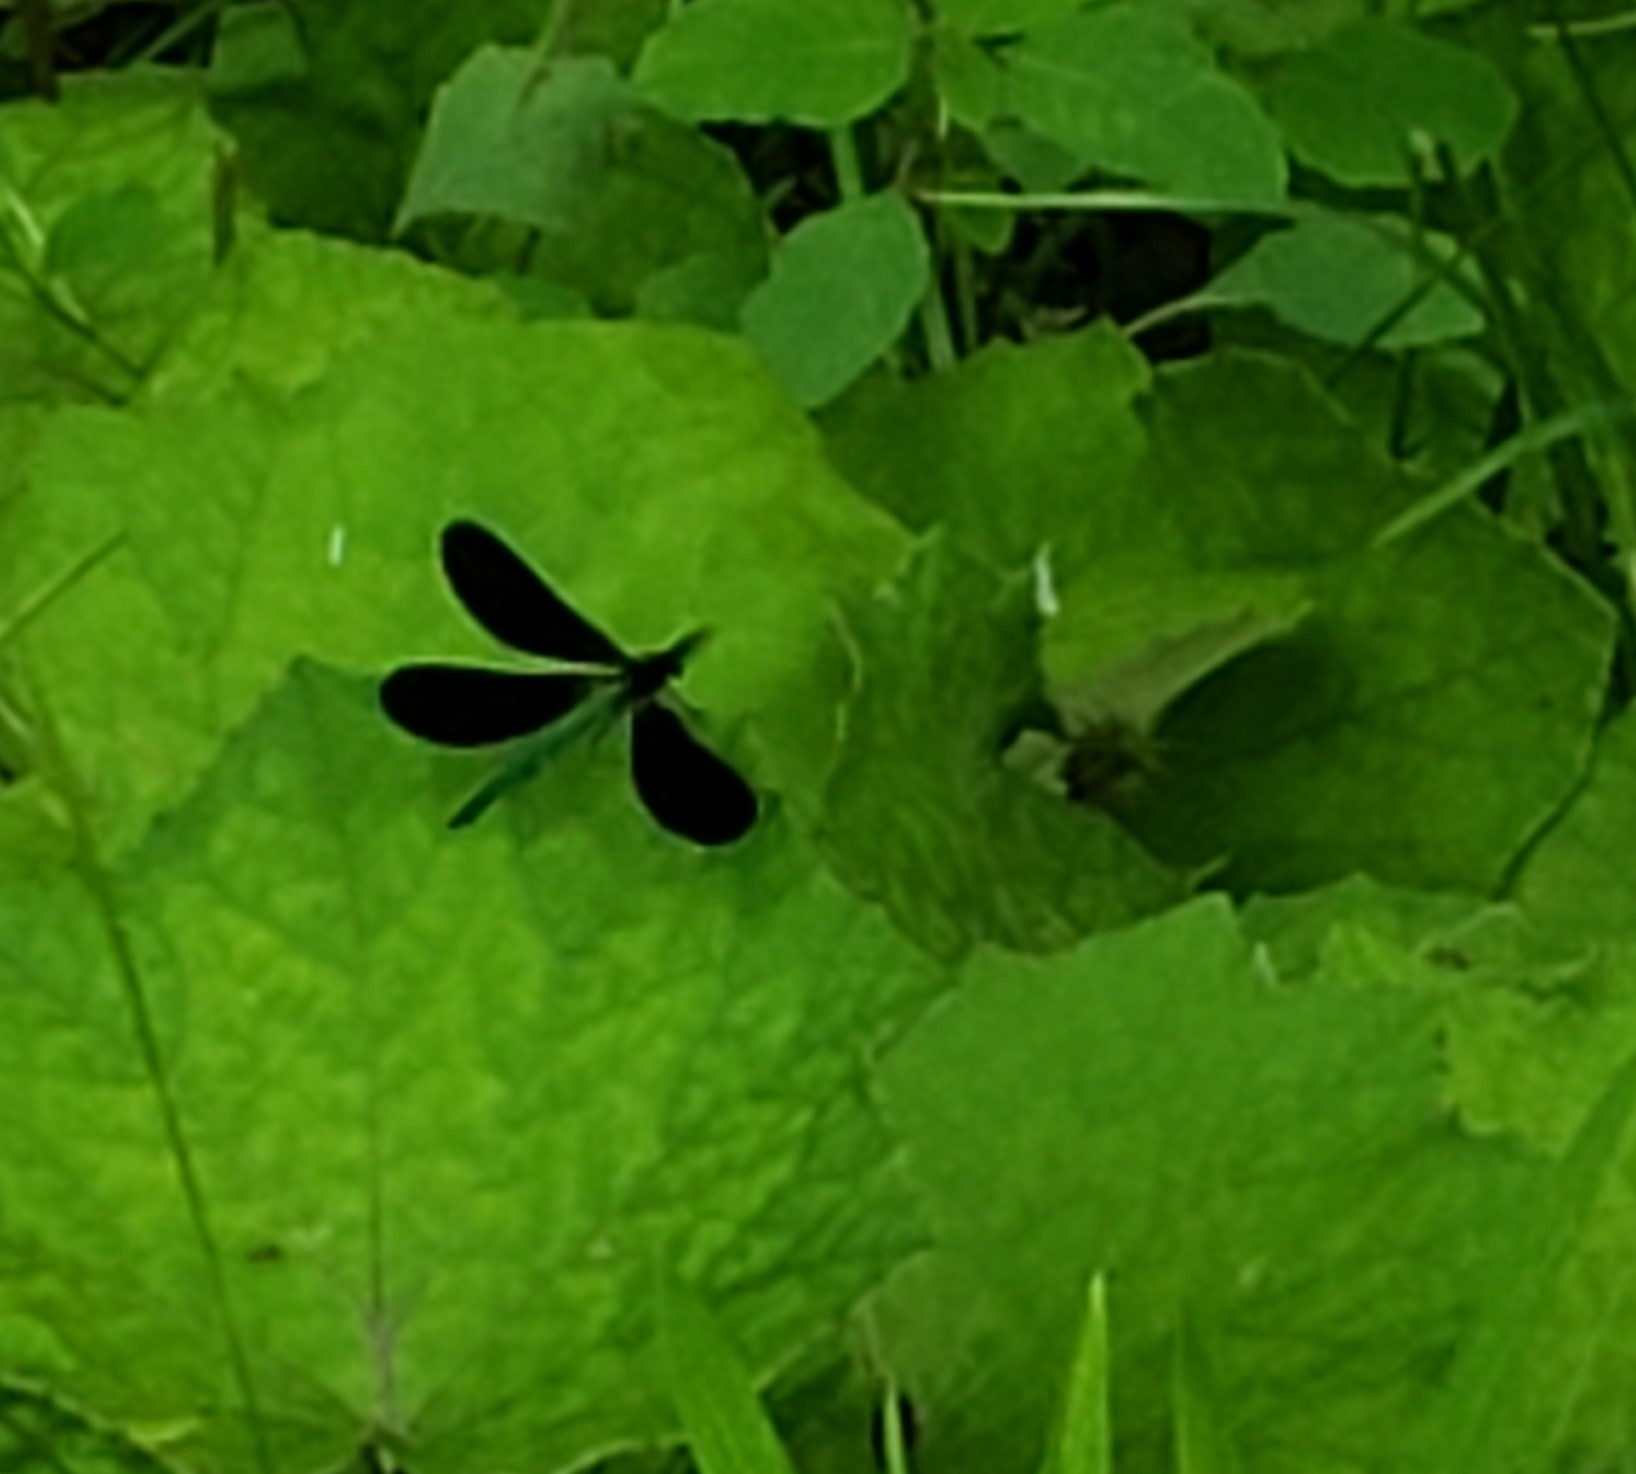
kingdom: Animalia
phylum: Arthropoda
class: Insecta
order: Odonata
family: Calopterygidae
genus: Calopteryx
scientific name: Calopteryx maculata
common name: Ebony jewelwing
